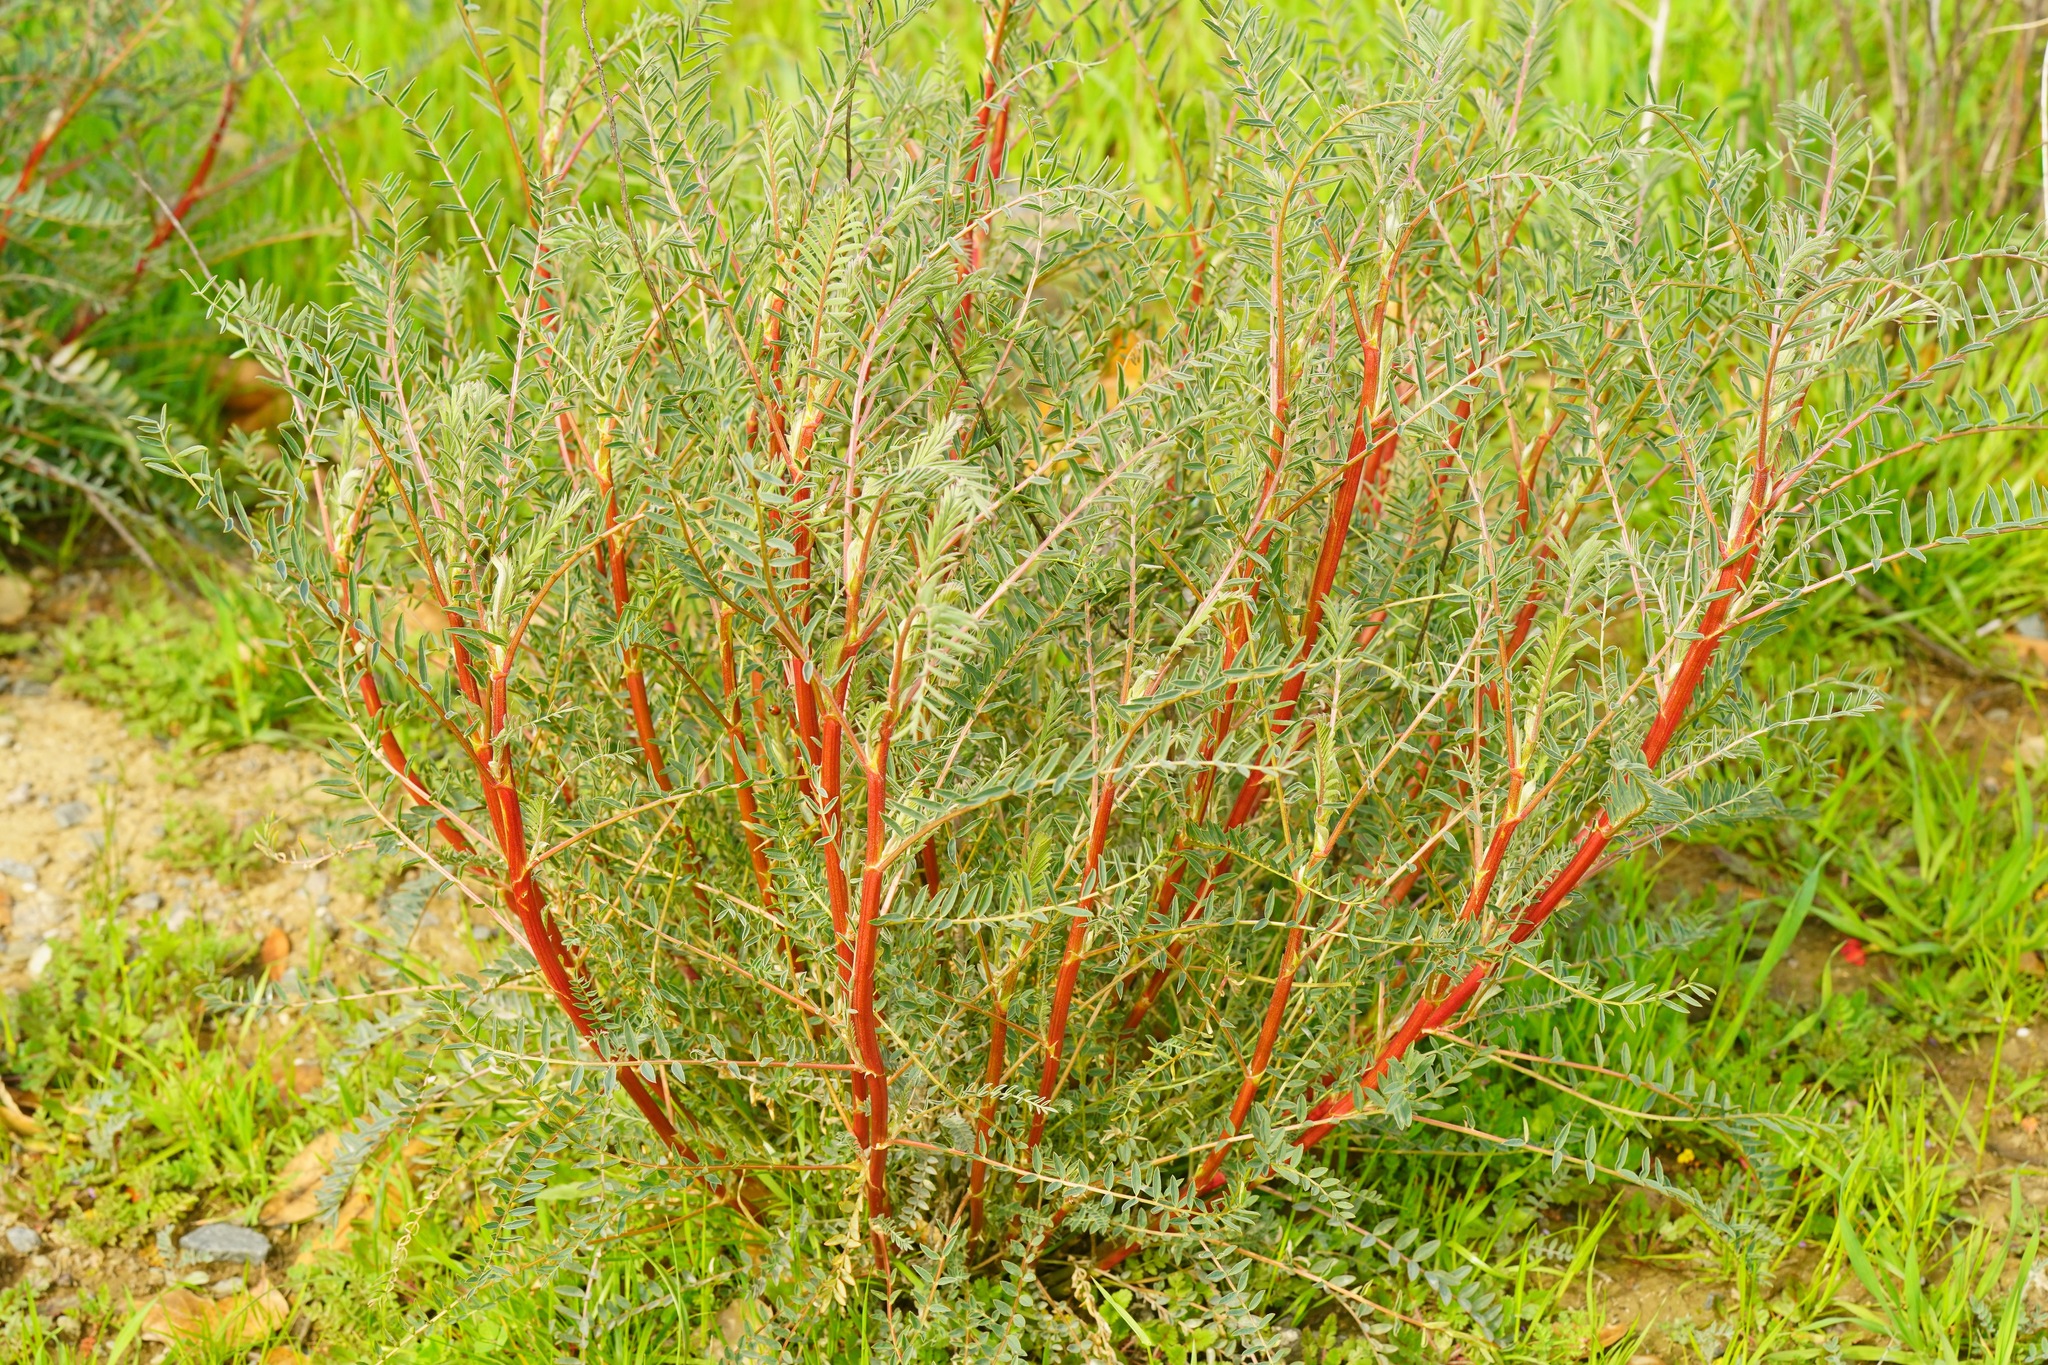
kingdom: Plantae
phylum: Tracheophyta
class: Magnoliopsida
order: Fabales
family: Fabaceae
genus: Astragalus
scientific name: Astragalus asymmetricus
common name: Horse locoweed
